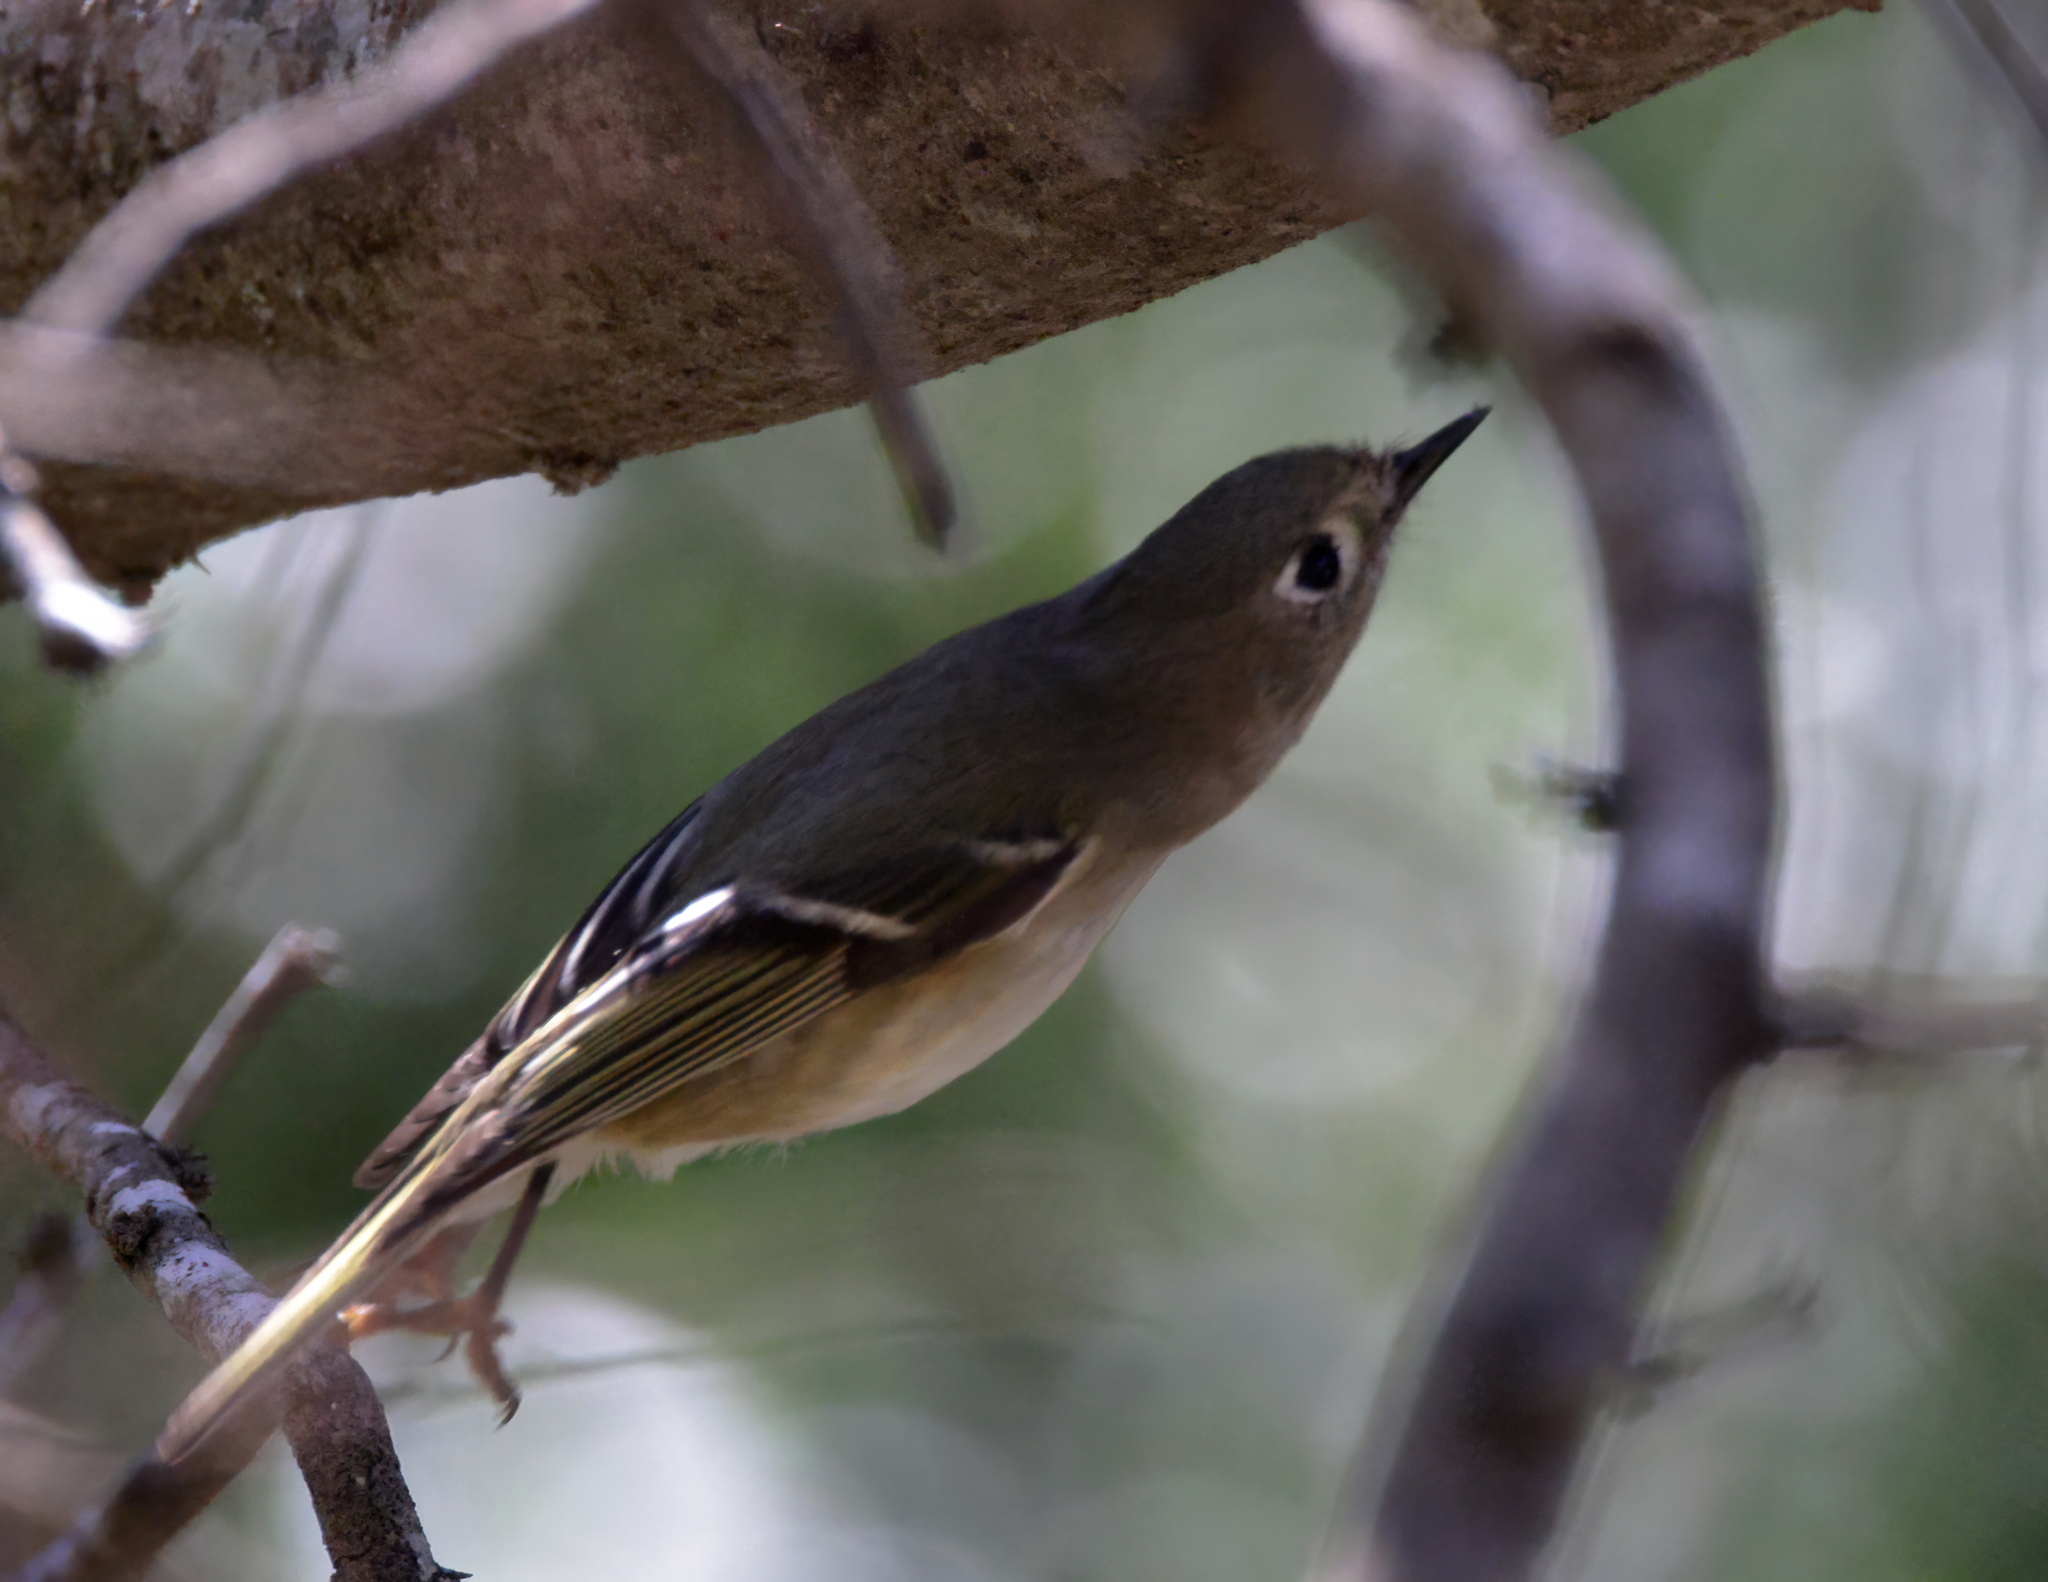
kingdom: Animalia
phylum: Chordata
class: Aves
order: Passeriformes
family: Regulidae
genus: Regulus
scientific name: Regulus calendula
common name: Ruby-crowned kinglet
